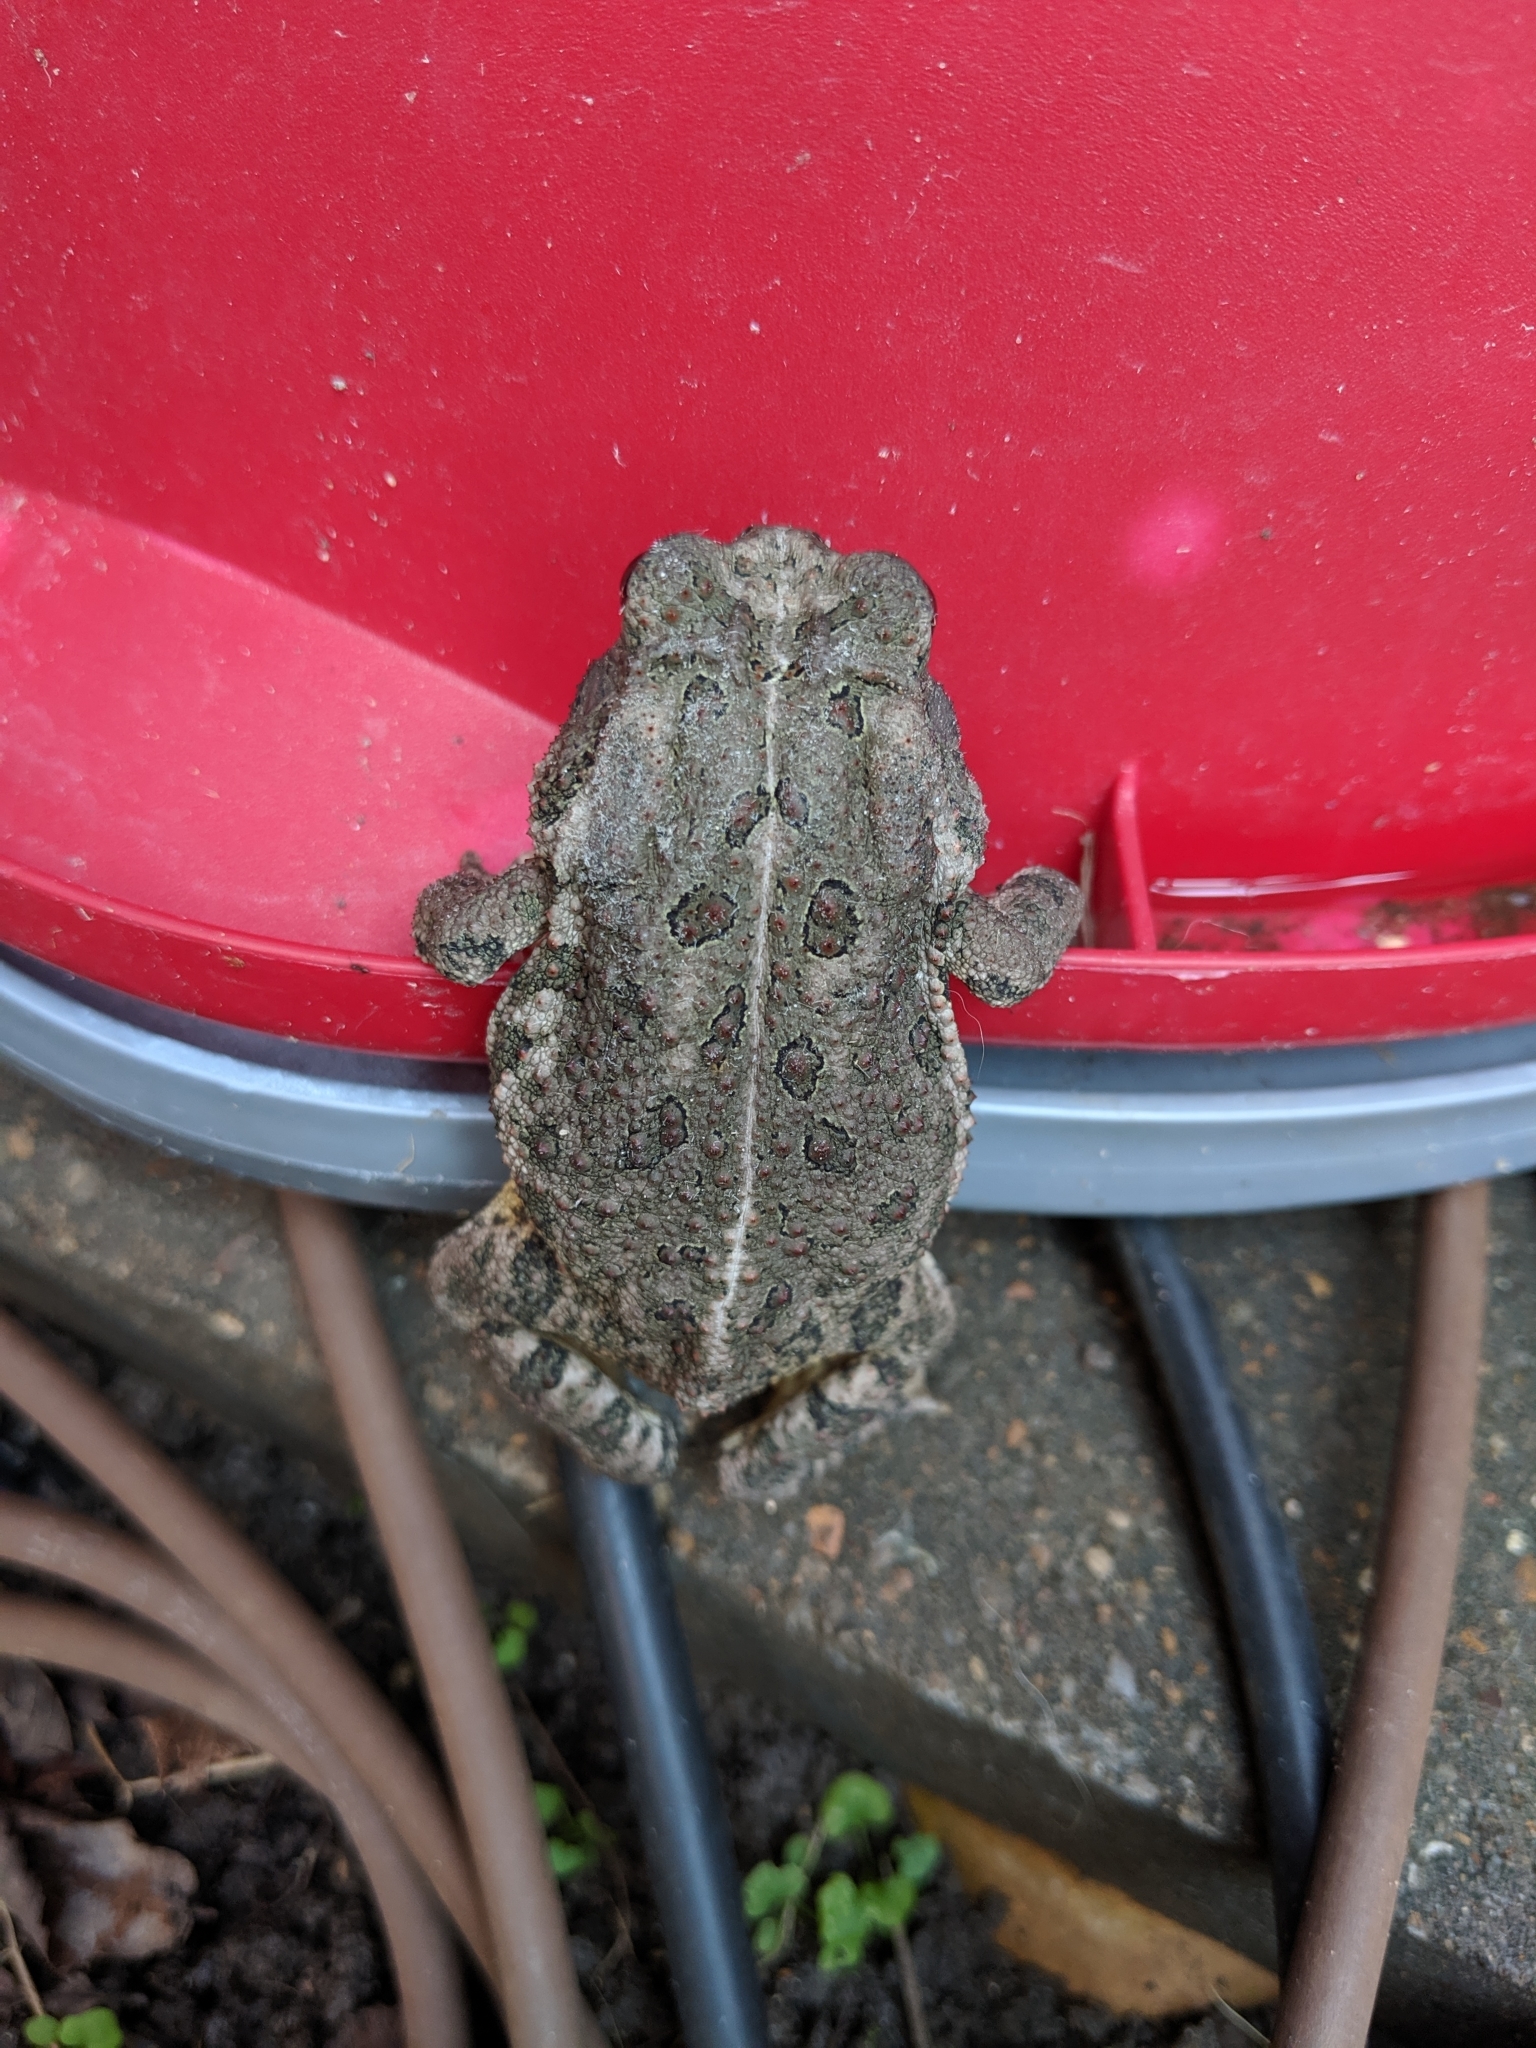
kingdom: Animalia
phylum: Chordata
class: Amphibia
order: Anura
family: Bufonidae
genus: Anaxyrus
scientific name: Anaxyrus woodhousii
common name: Woodhouse's toad
